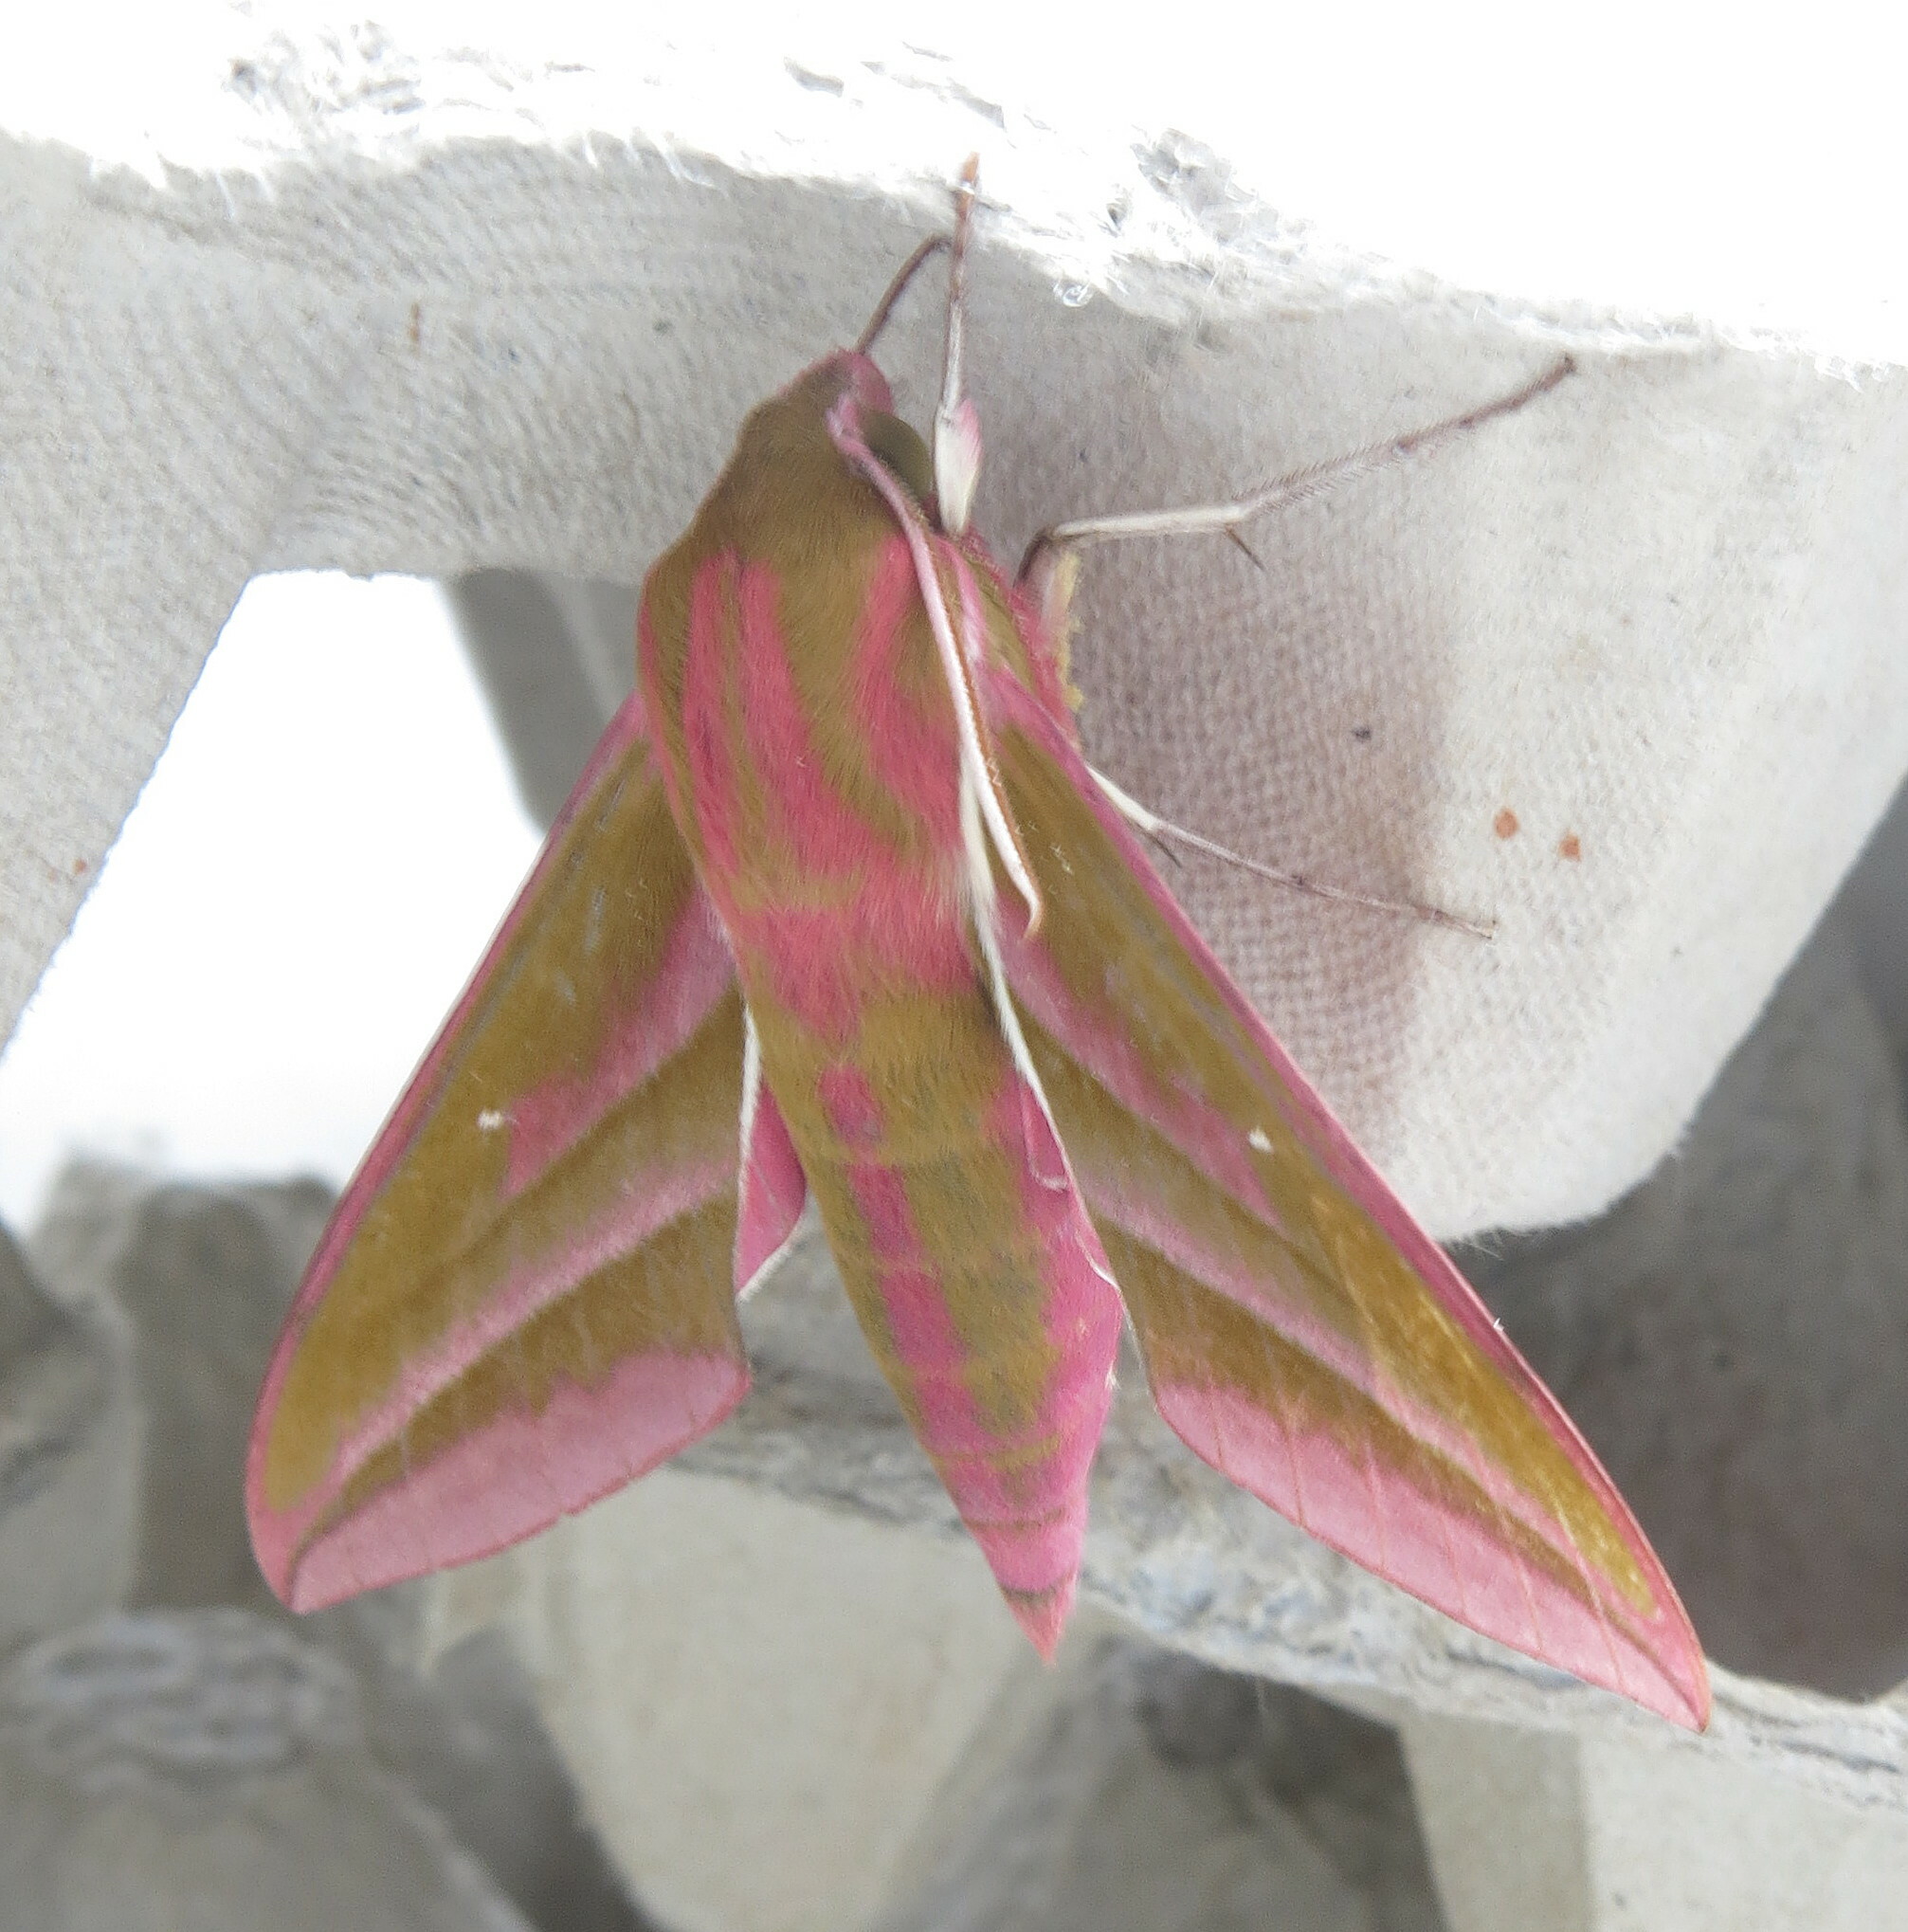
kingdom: Animalia
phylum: Arthropoda
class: Insecta
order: Lepidoptera
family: Sphingidae
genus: Deilephila
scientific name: Deilephila elpenor
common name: Elephant hawk-moth
